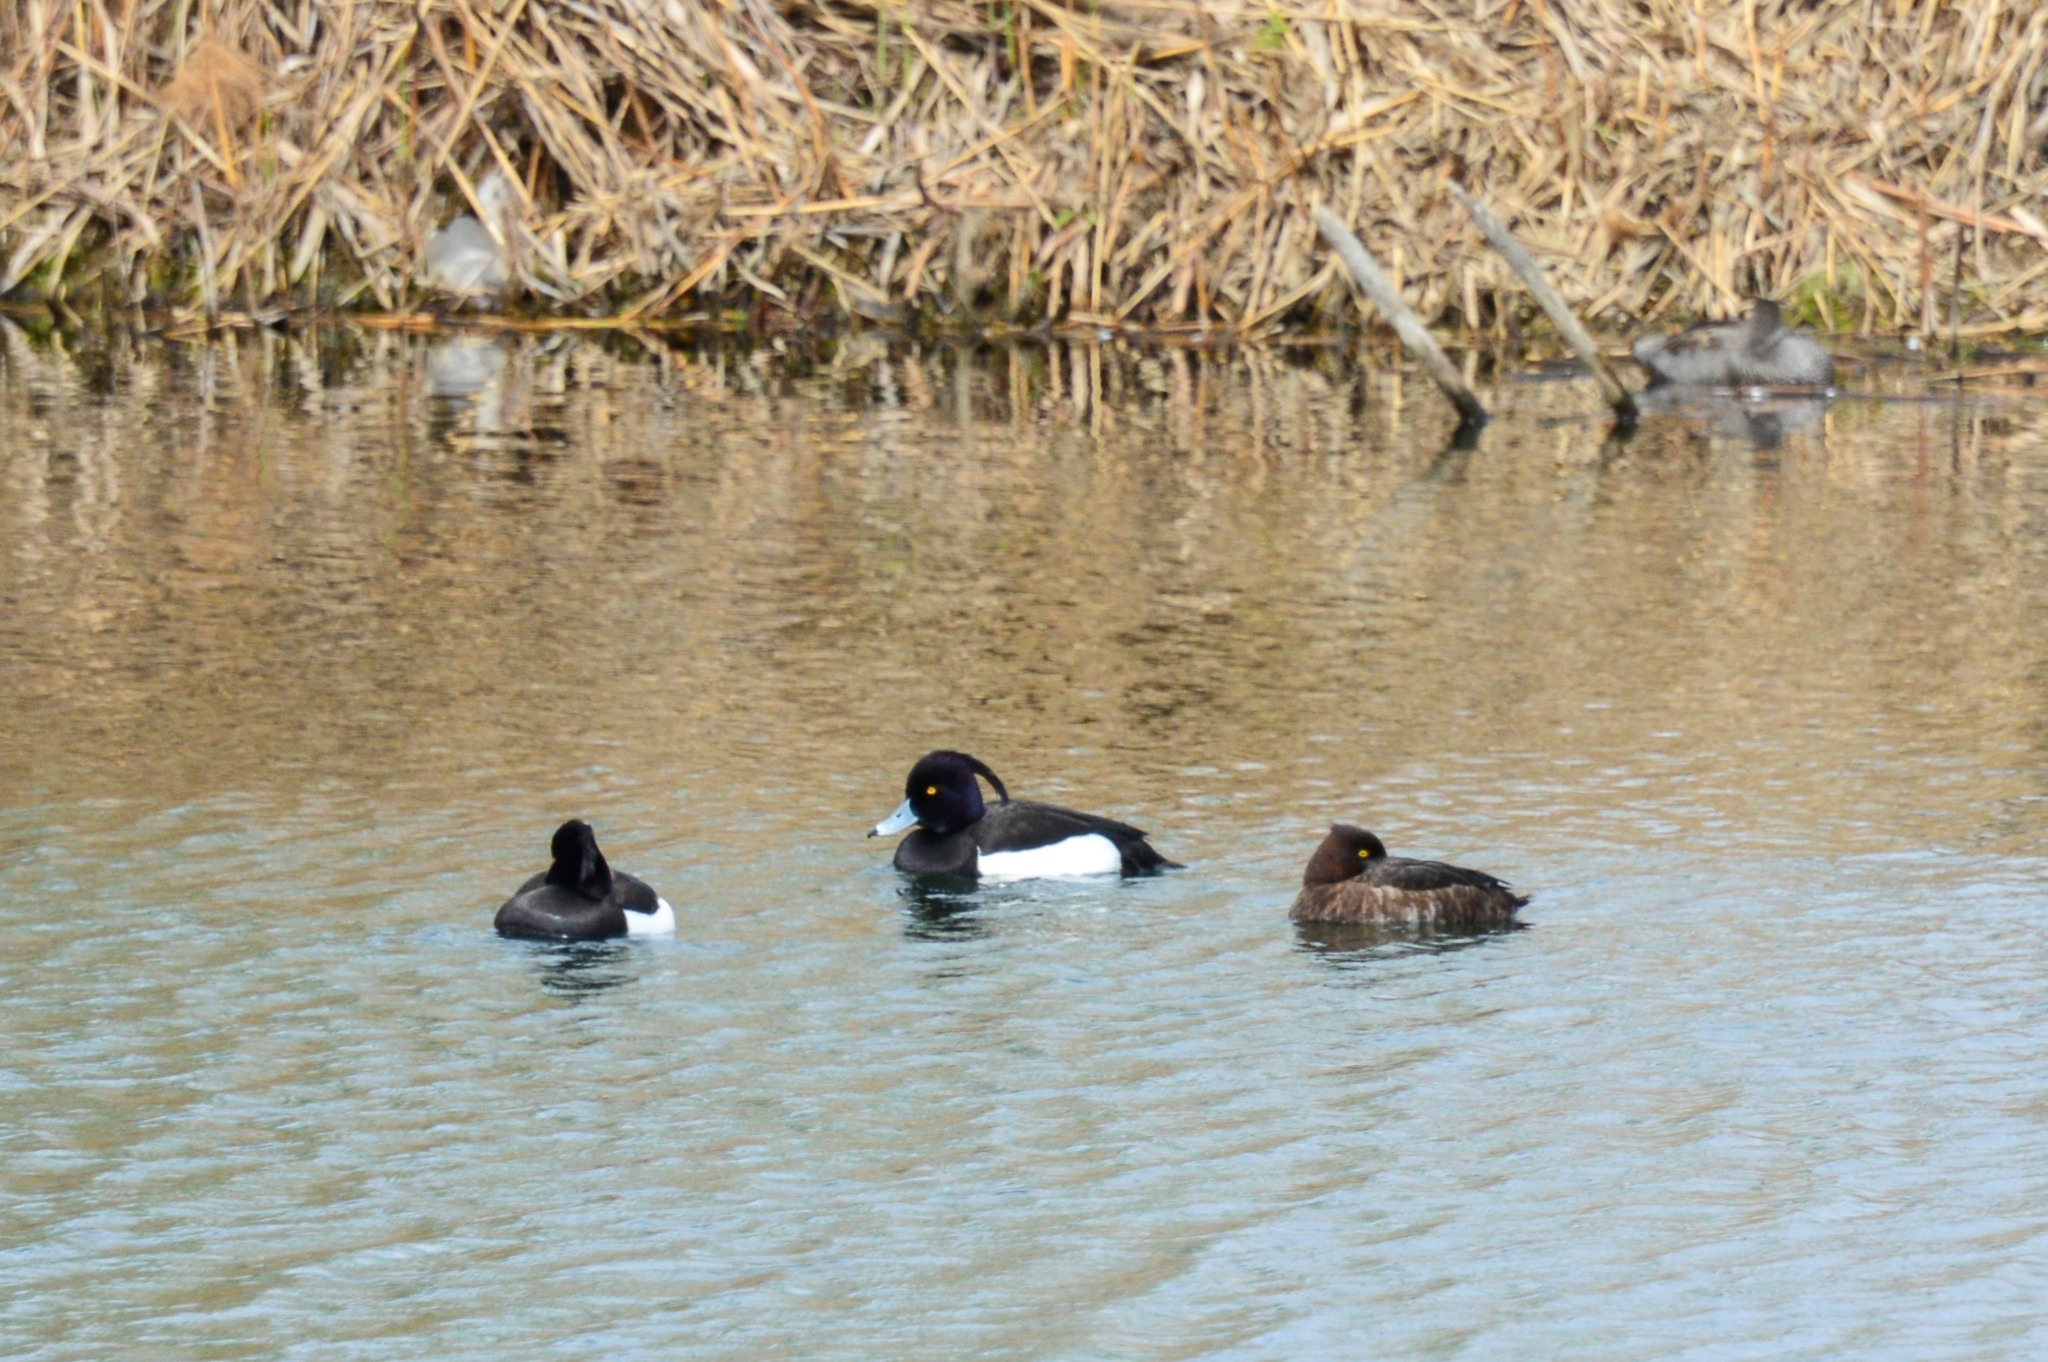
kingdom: Animalia
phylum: Chordata
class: Aves
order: Anseriformes
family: Anatidae
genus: Aythya
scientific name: Aythya fuligula
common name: Tufted duck
